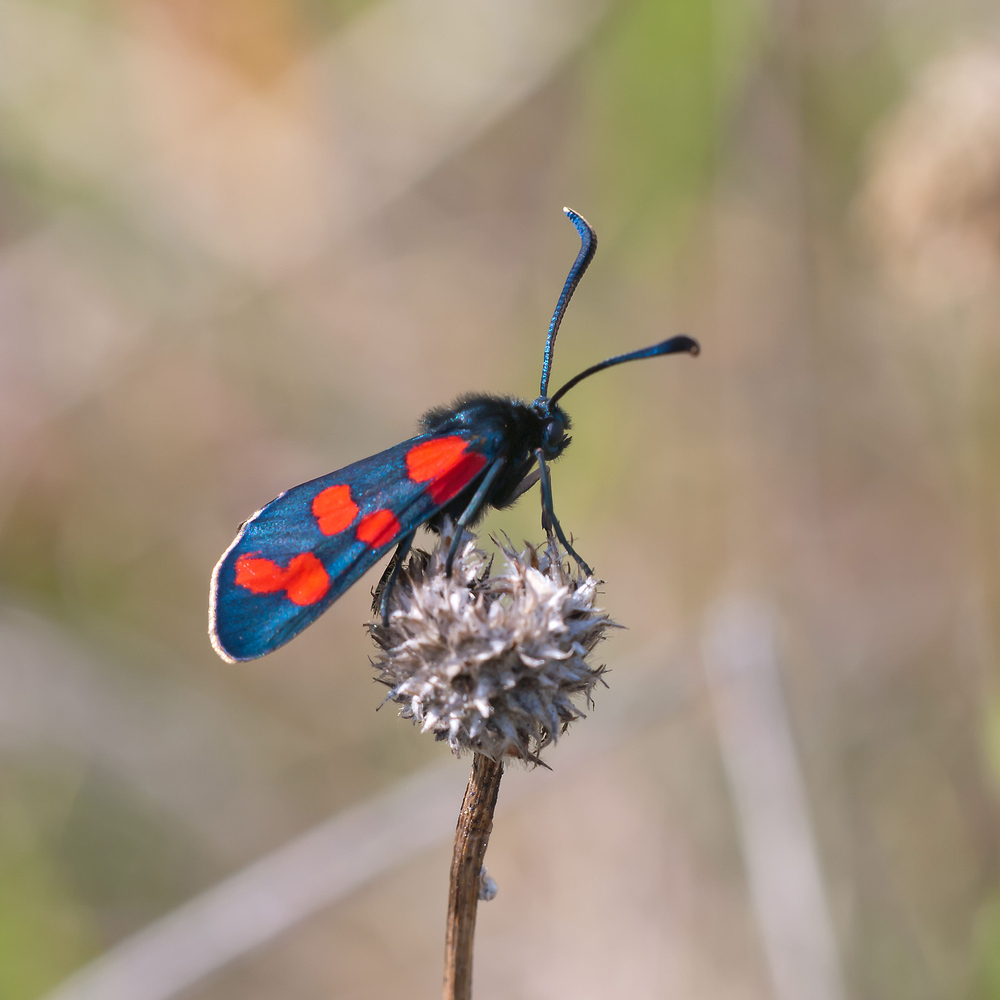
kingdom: Animalia
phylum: Arthropoda
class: Insecta
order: Lepidoptera
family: Zygaenidae
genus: Zygaena
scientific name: Zygaena transalpina
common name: Southern six spot burnet
